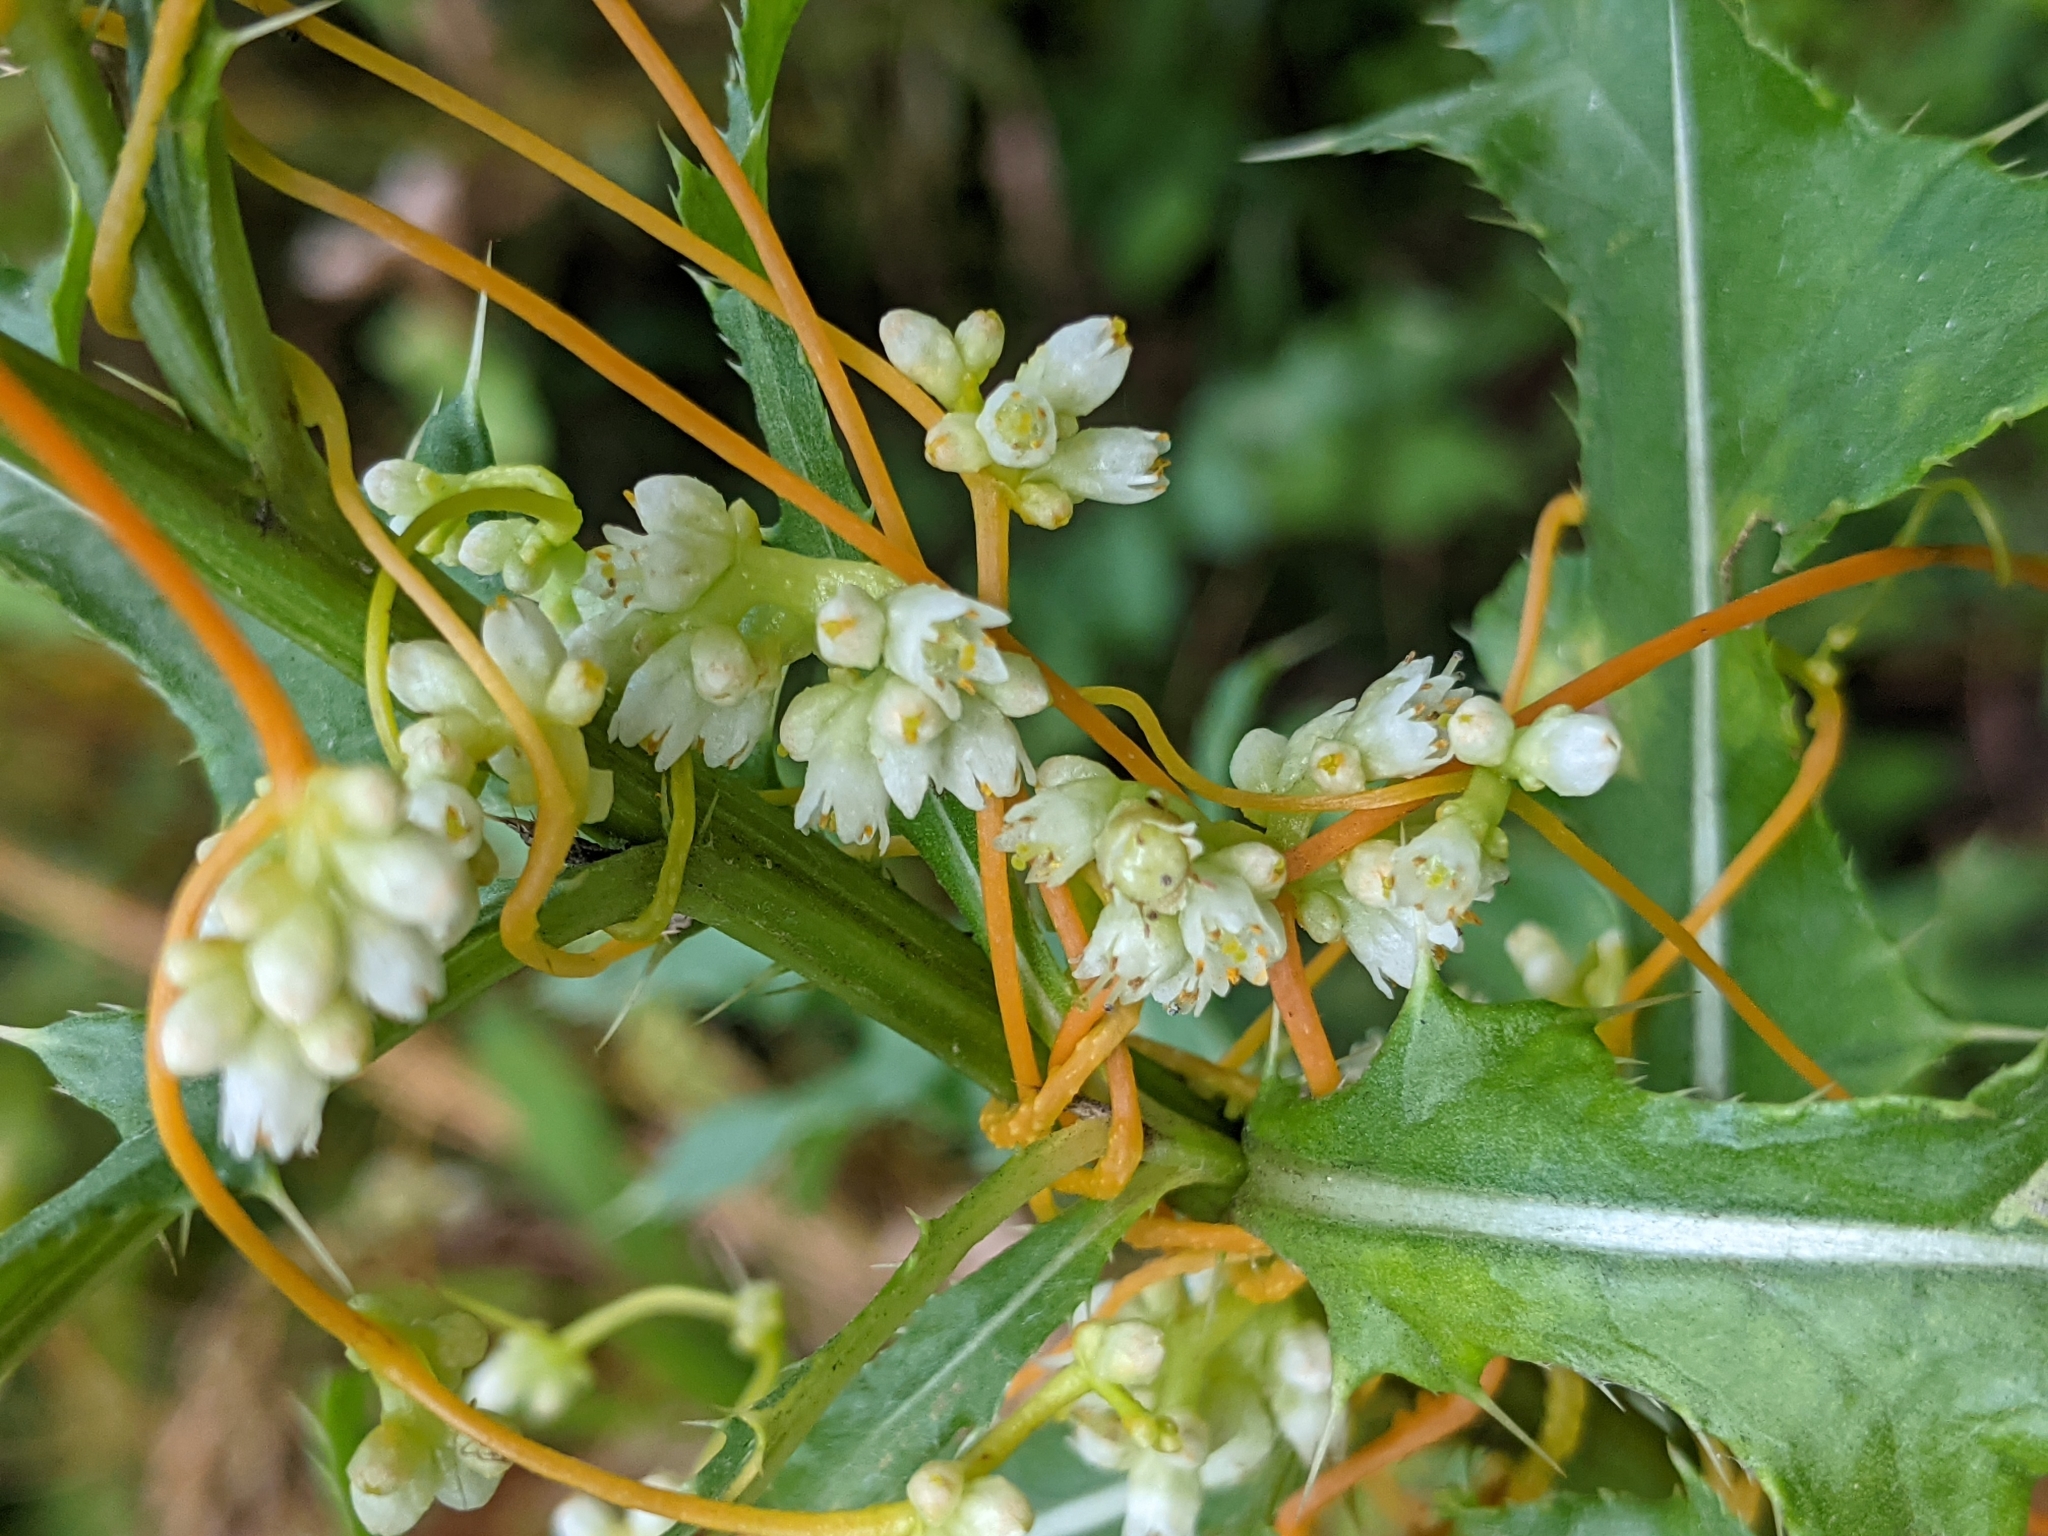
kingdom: Plantae
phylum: Tracheophyta
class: Magnoliopsida
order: Solanales
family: Convolvulaceae
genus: Cuscuta
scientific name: Cuscuta campestris
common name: Yellow dodder
